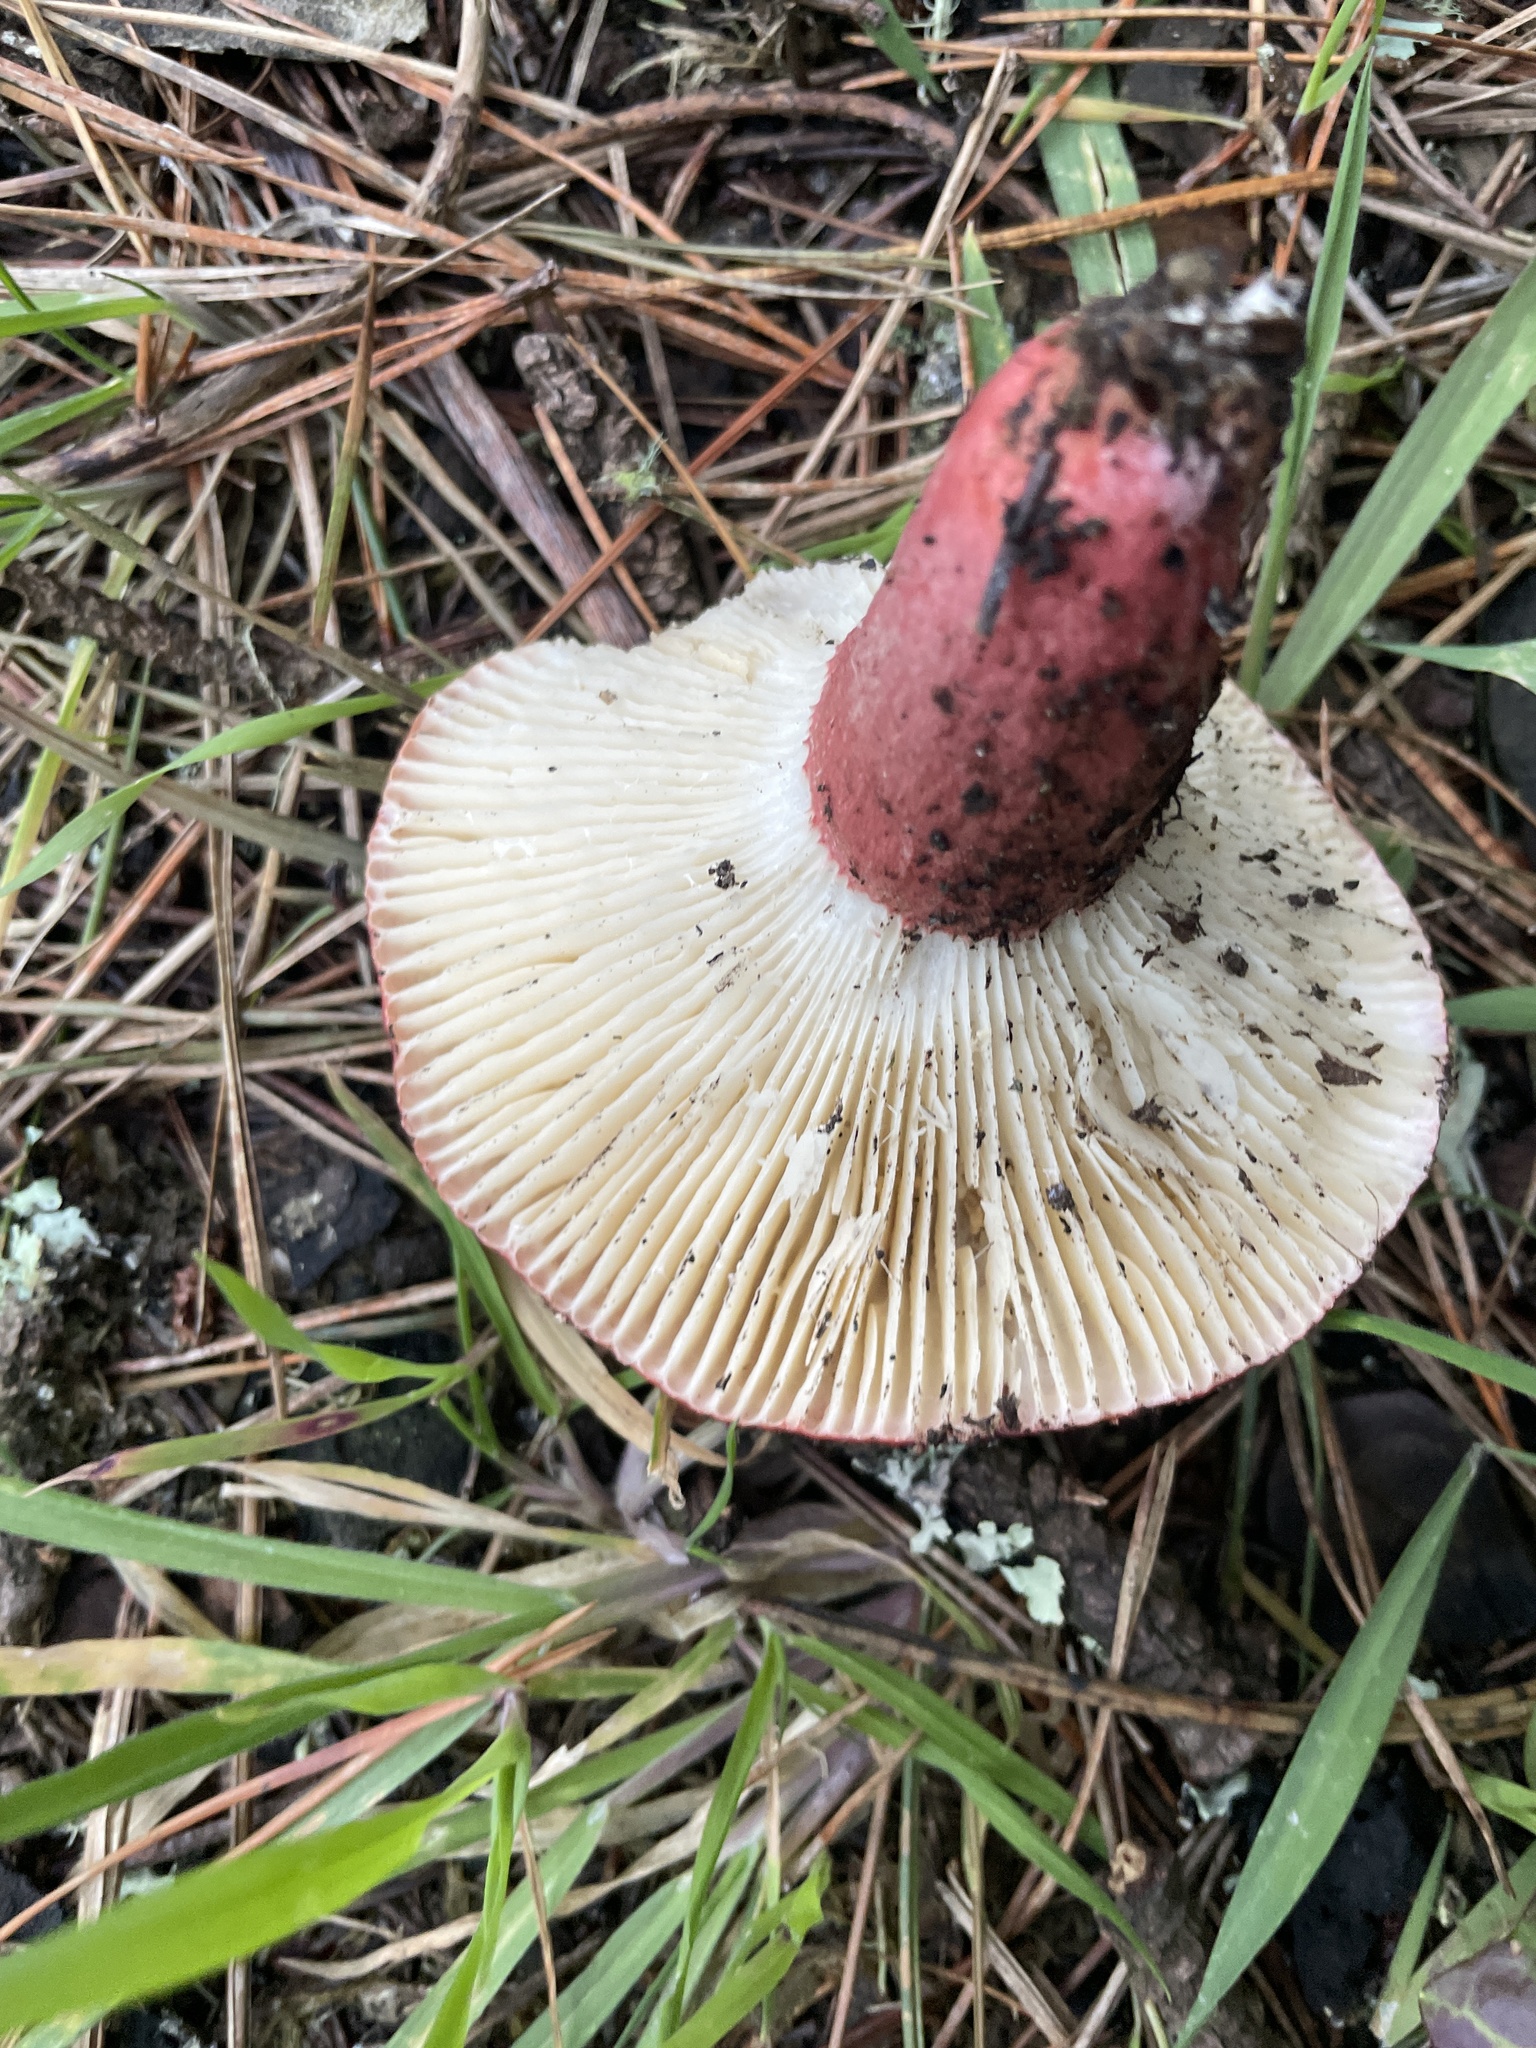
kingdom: Fungi
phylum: Basidiomycota
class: Agaricomycetes
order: Russulales
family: Russulaceae
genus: Russula
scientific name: Russula rhodocephala
